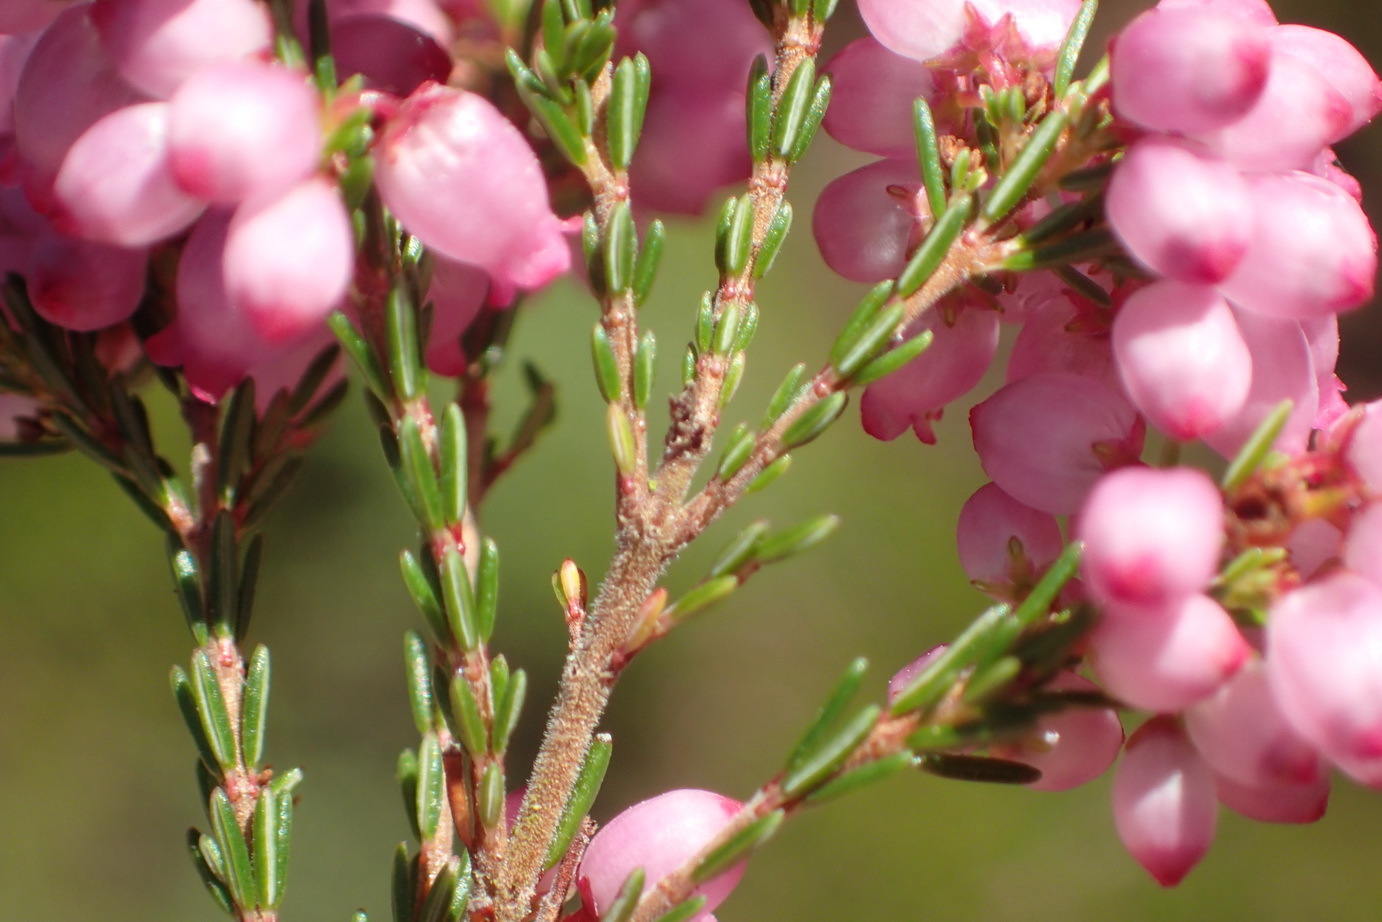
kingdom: Plantae
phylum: Tracheophyta
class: Magnoliopsida
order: Ericales
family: Ericaceae
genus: Erica
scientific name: Erica gracilis
